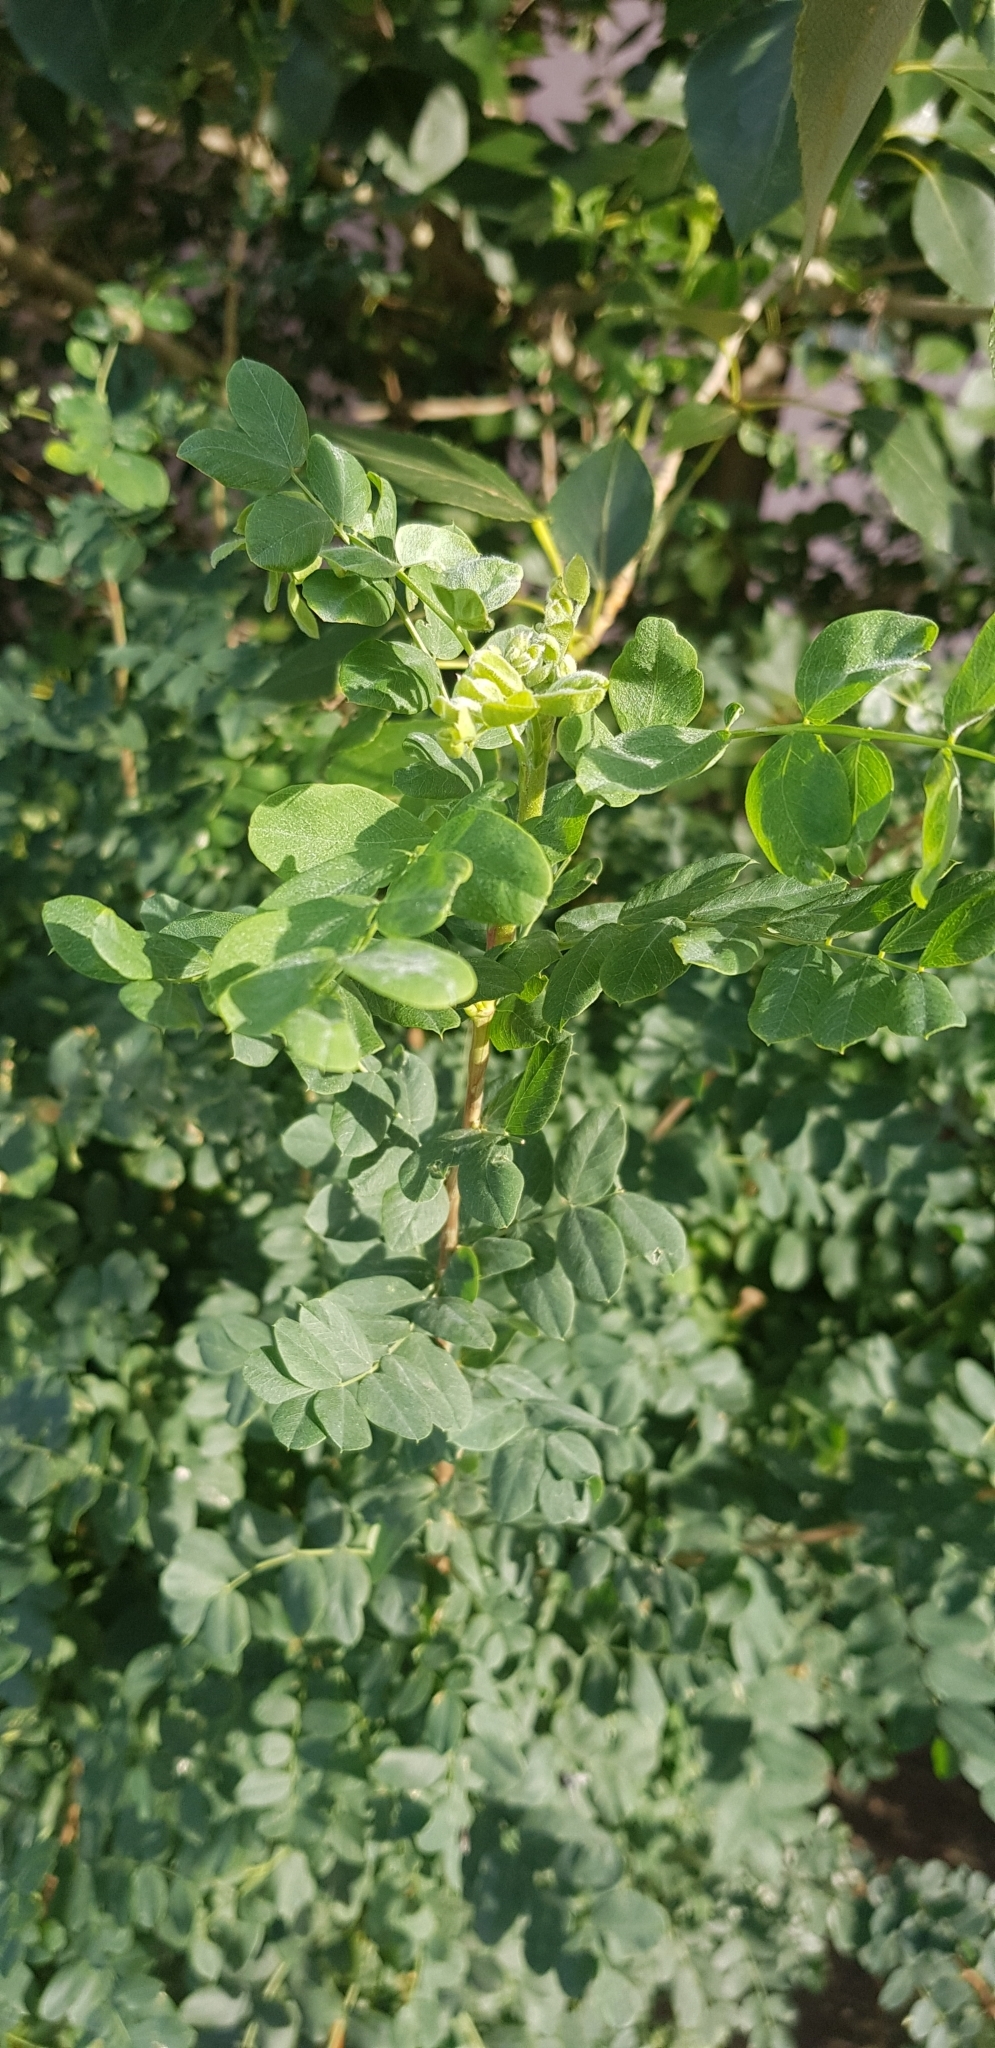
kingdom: Plantae
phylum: Tracheophyta
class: Magnoliopsida
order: Fabales
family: Fabaceae
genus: Caragana
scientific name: Caragana arborescens
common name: Siberian peashrub
